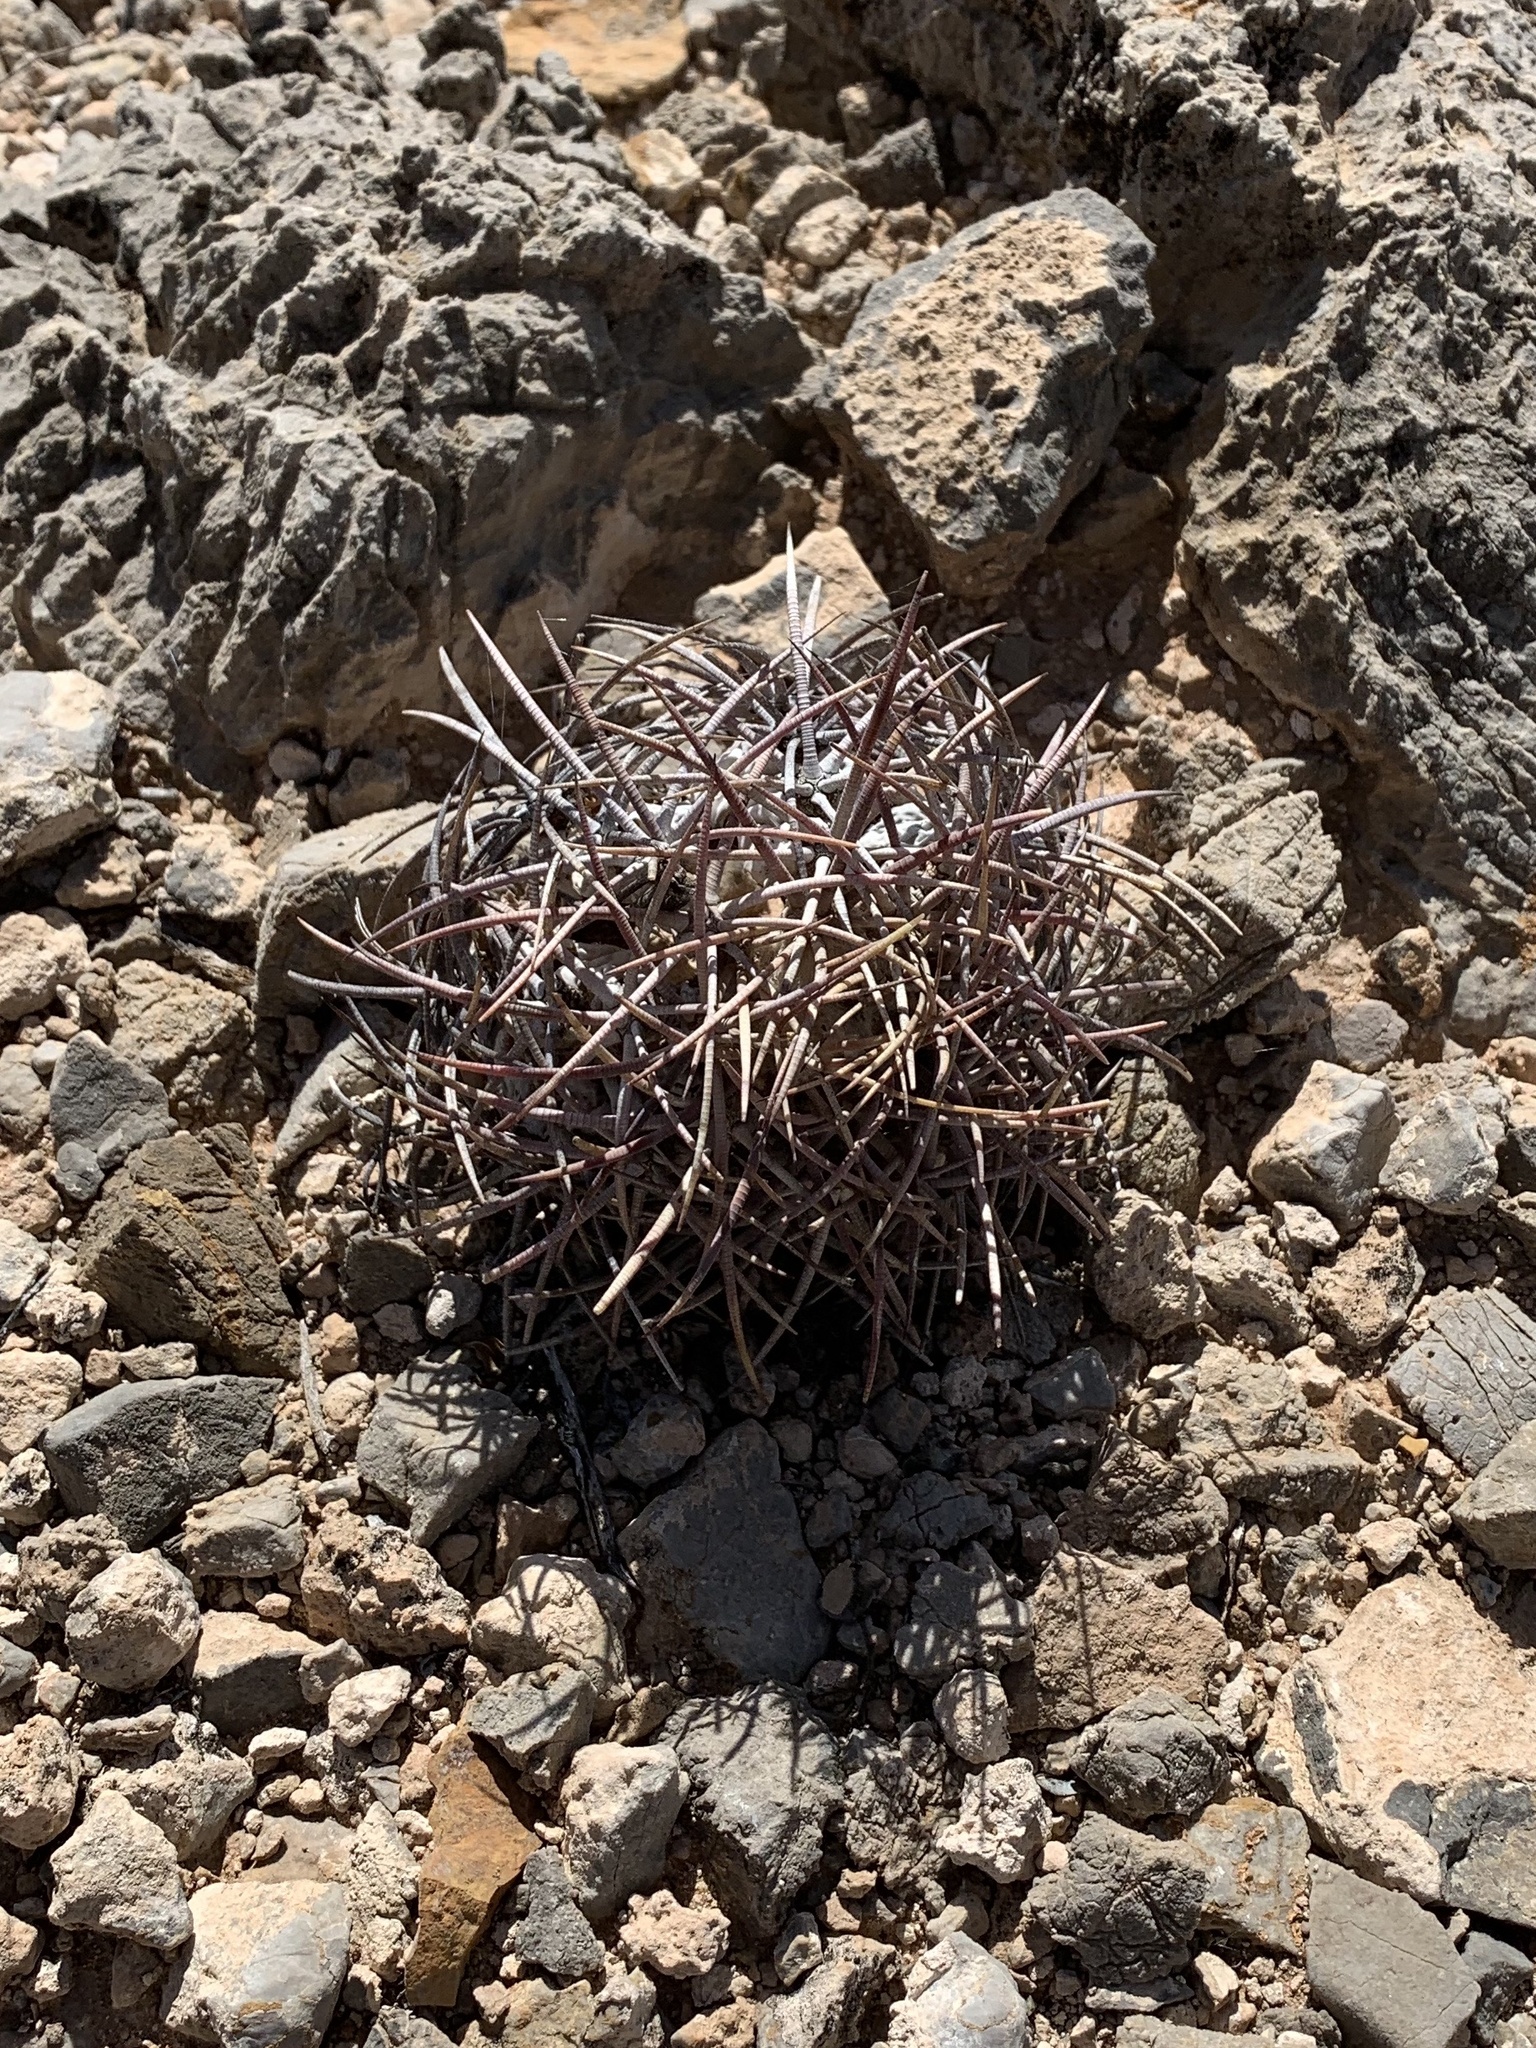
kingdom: Plantae
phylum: Tracheophyta
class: Magnoliopsida
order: Caryophyllales
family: Cactaceae
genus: Echinocactus
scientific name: Echinocactus horizonthalonius
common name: Devilshead
